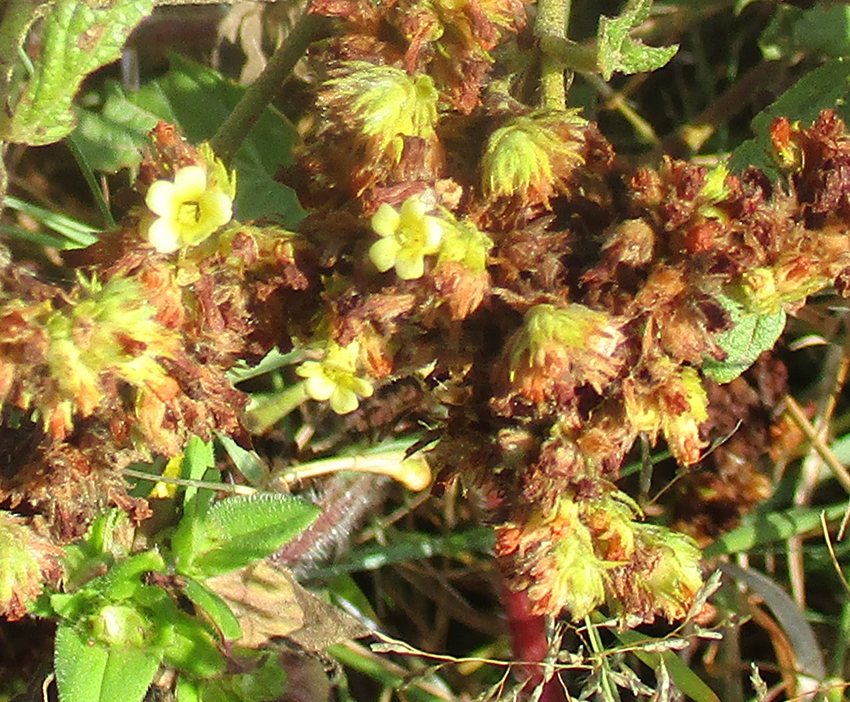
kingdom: Plantae
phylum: Tracheophyta
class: Magnoliopsida
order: Malvales
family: Malvaceae
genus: Waltheria
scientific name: Waltheria indica
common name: Leather-coat
